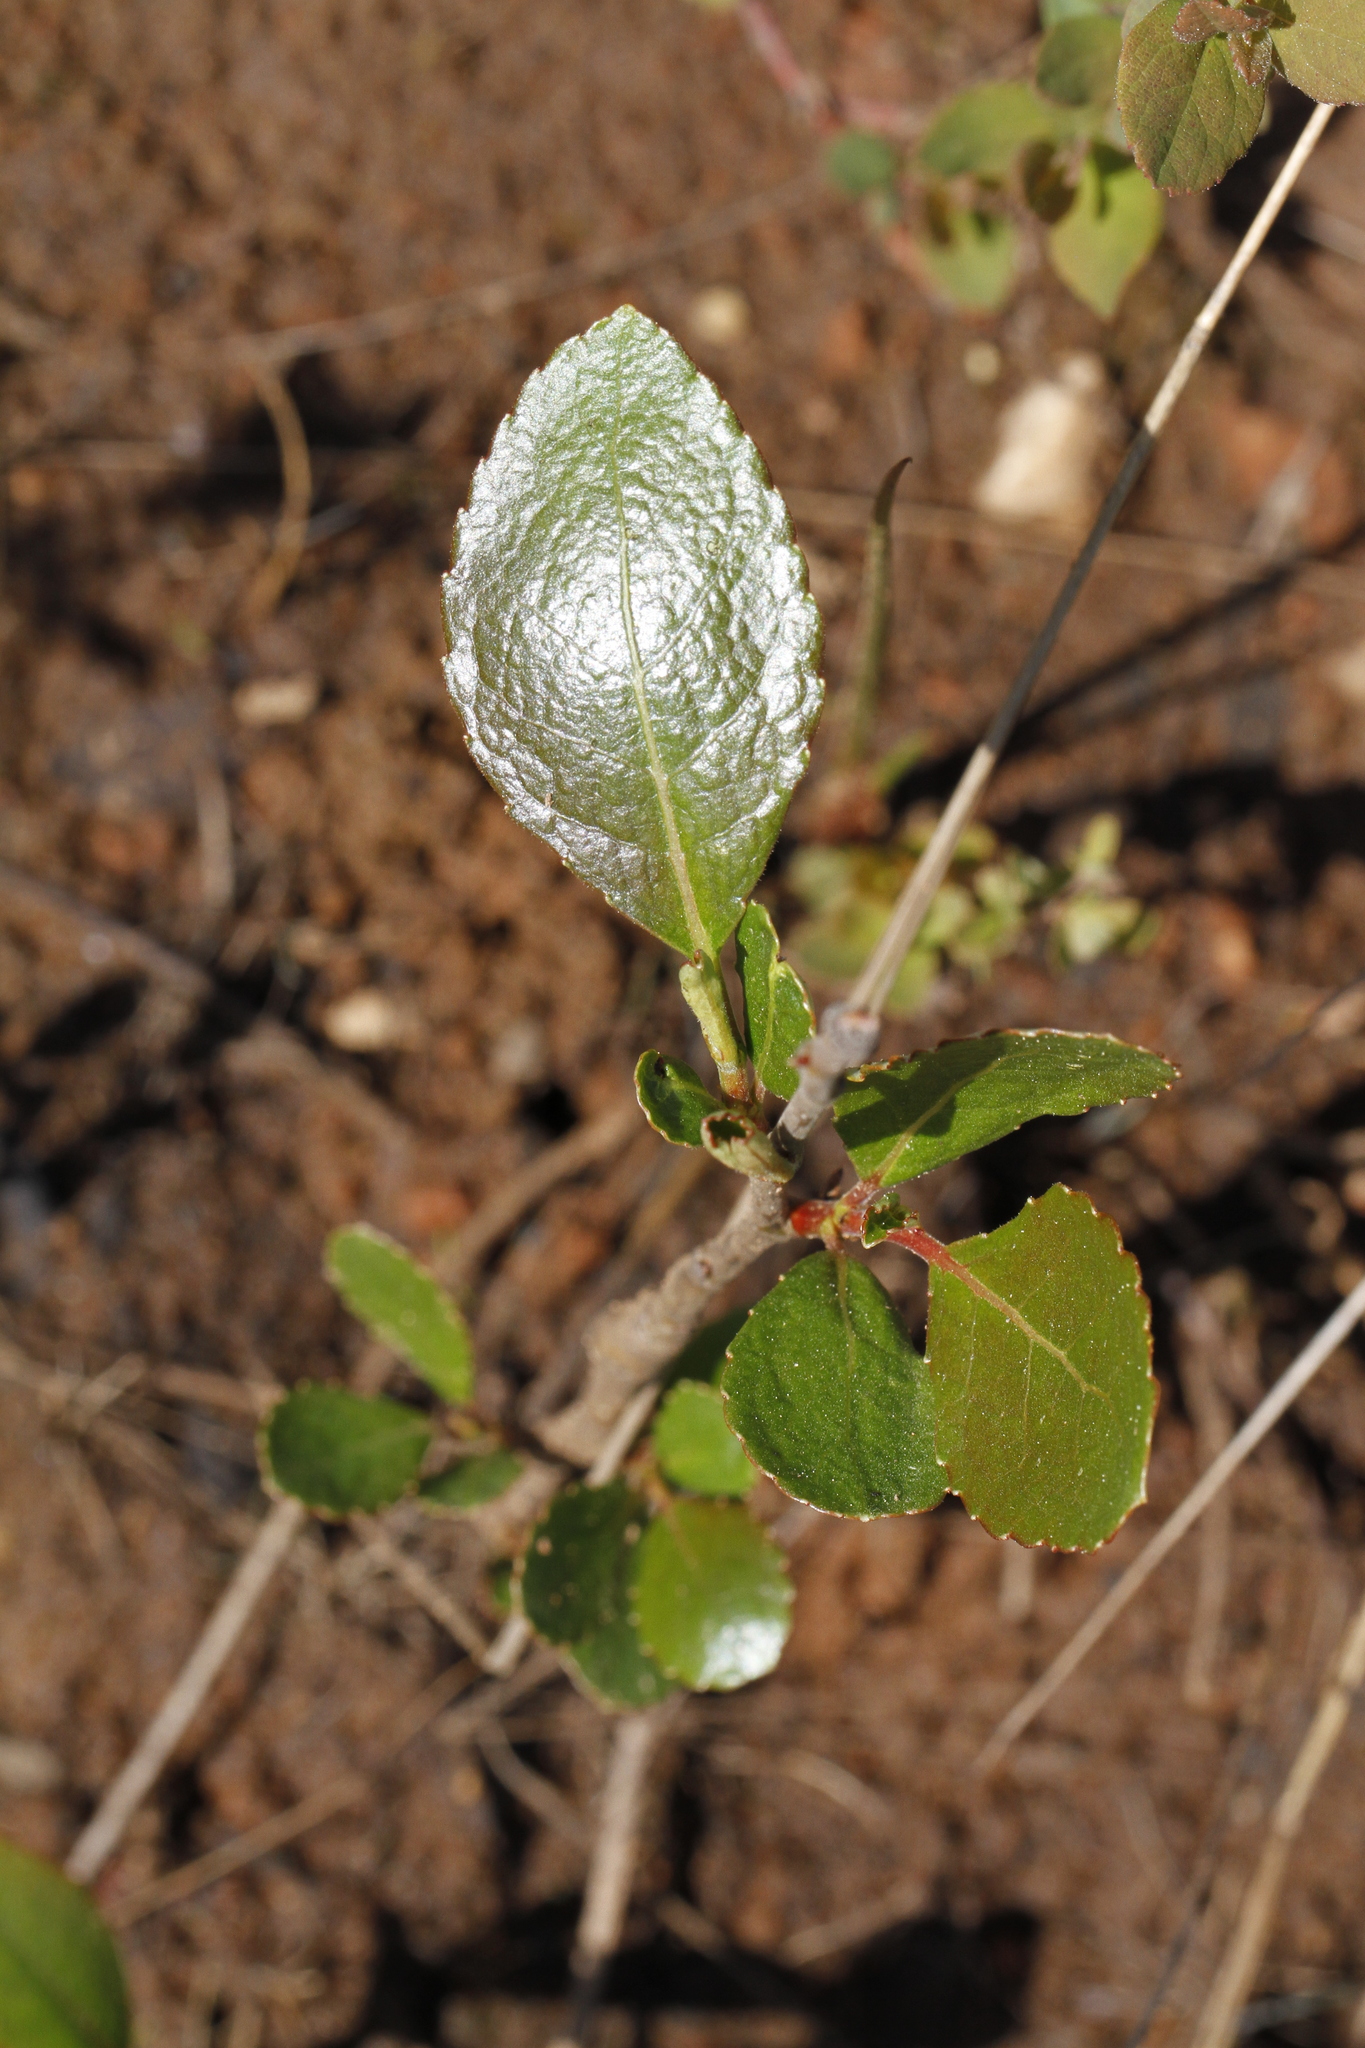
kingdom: Plantae
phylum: Tracheophyta
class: Magnoliopsida
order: Fagales
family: Betulaceae
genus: Betula
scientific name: Betula pumila
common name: Bog birch
